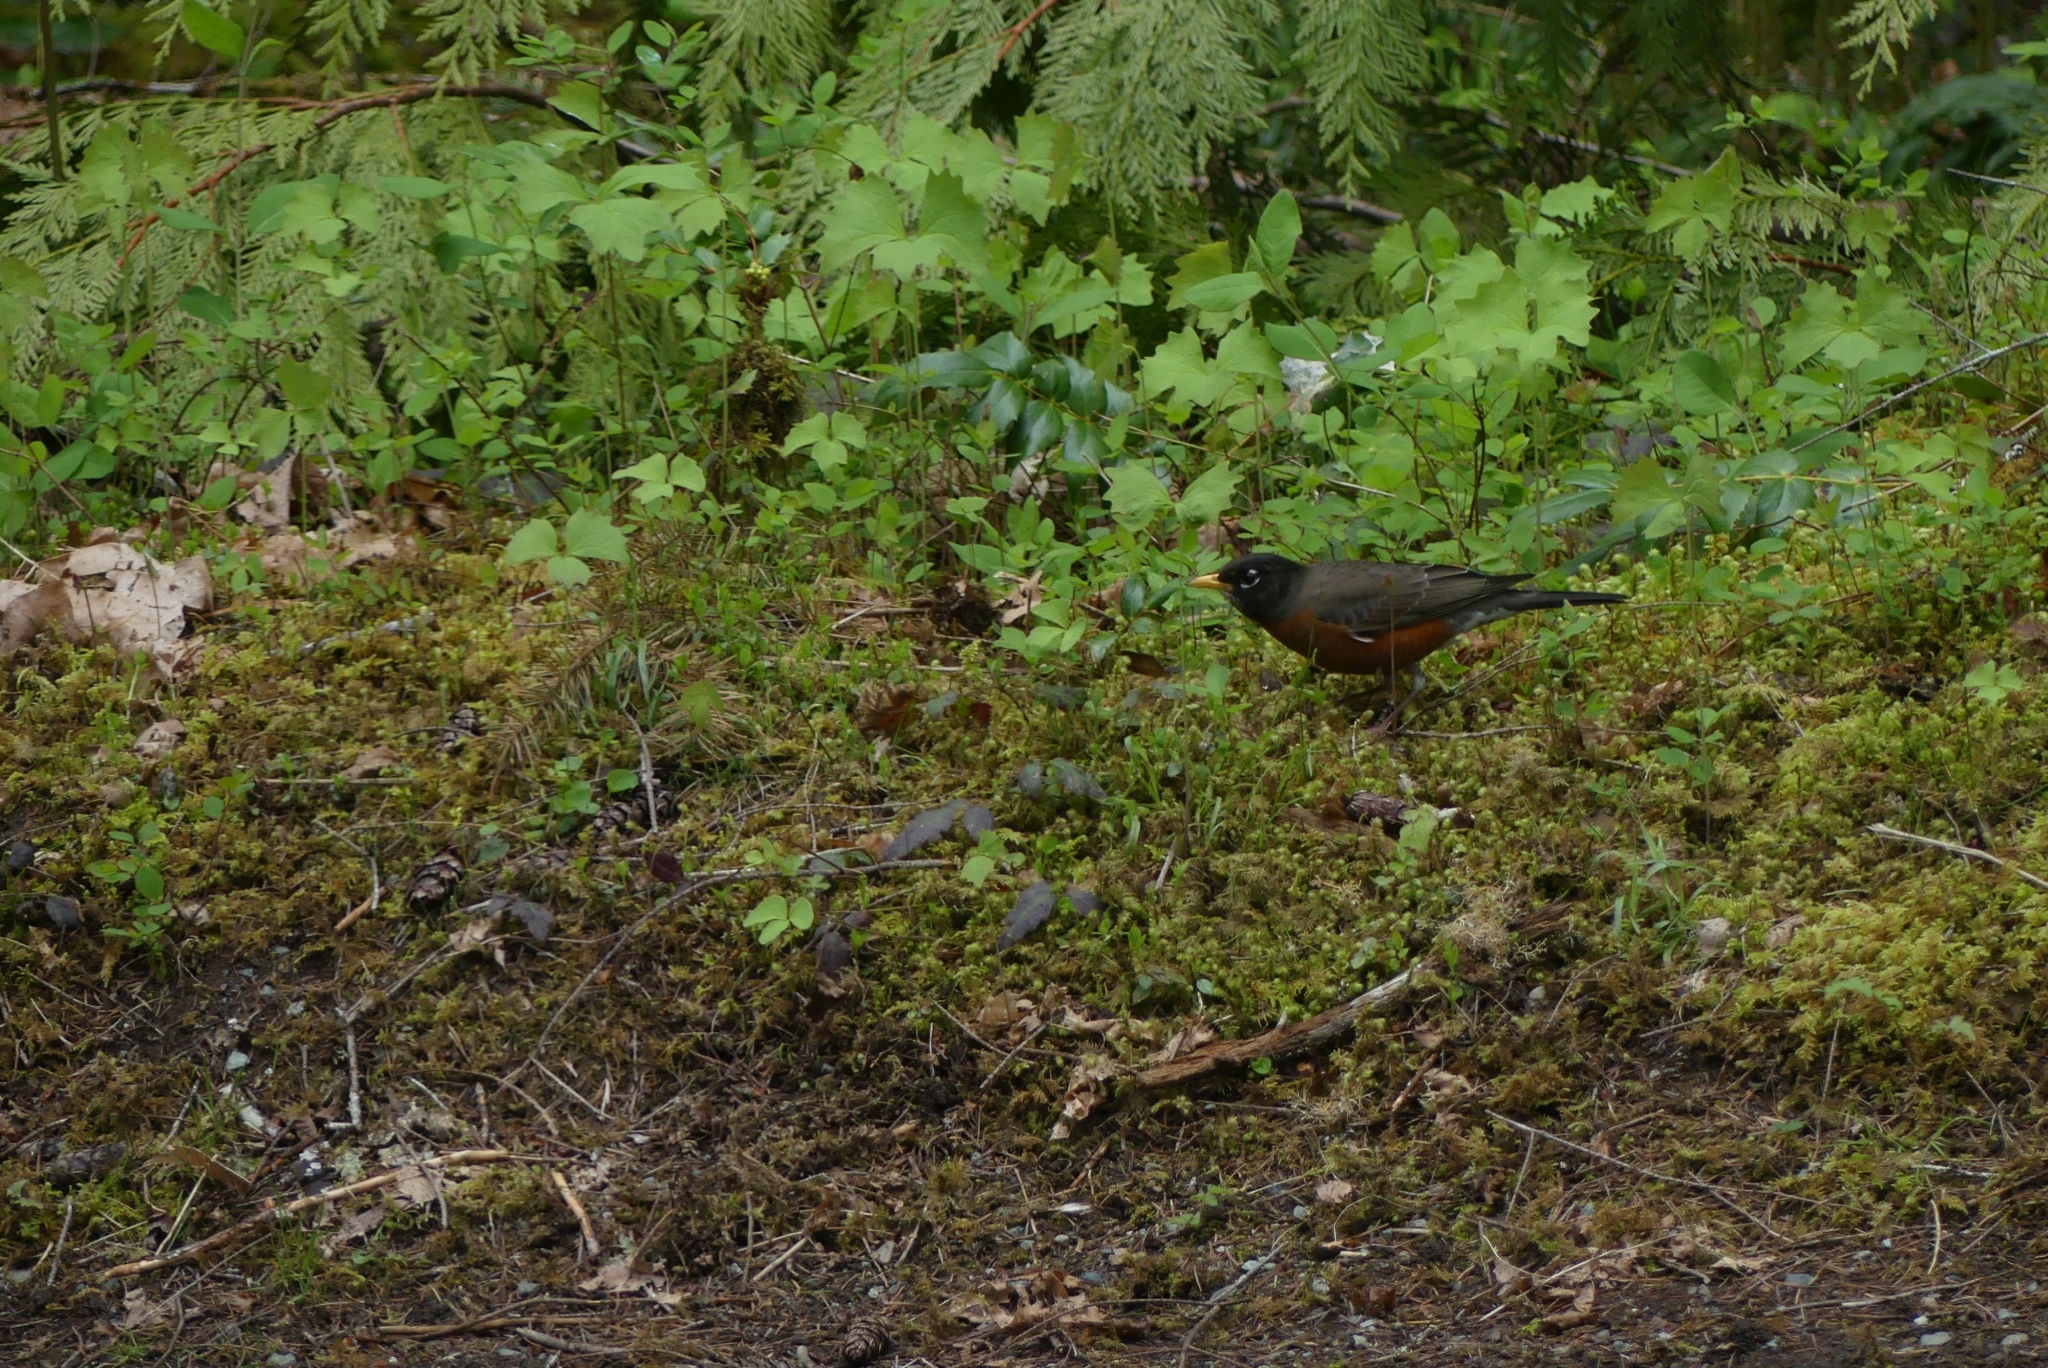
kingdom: Animalia
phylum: Chordata
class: Aves
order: Passeriformes
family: Turdidae
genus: Turdus
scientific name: Turdus migratorius
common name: American robin
